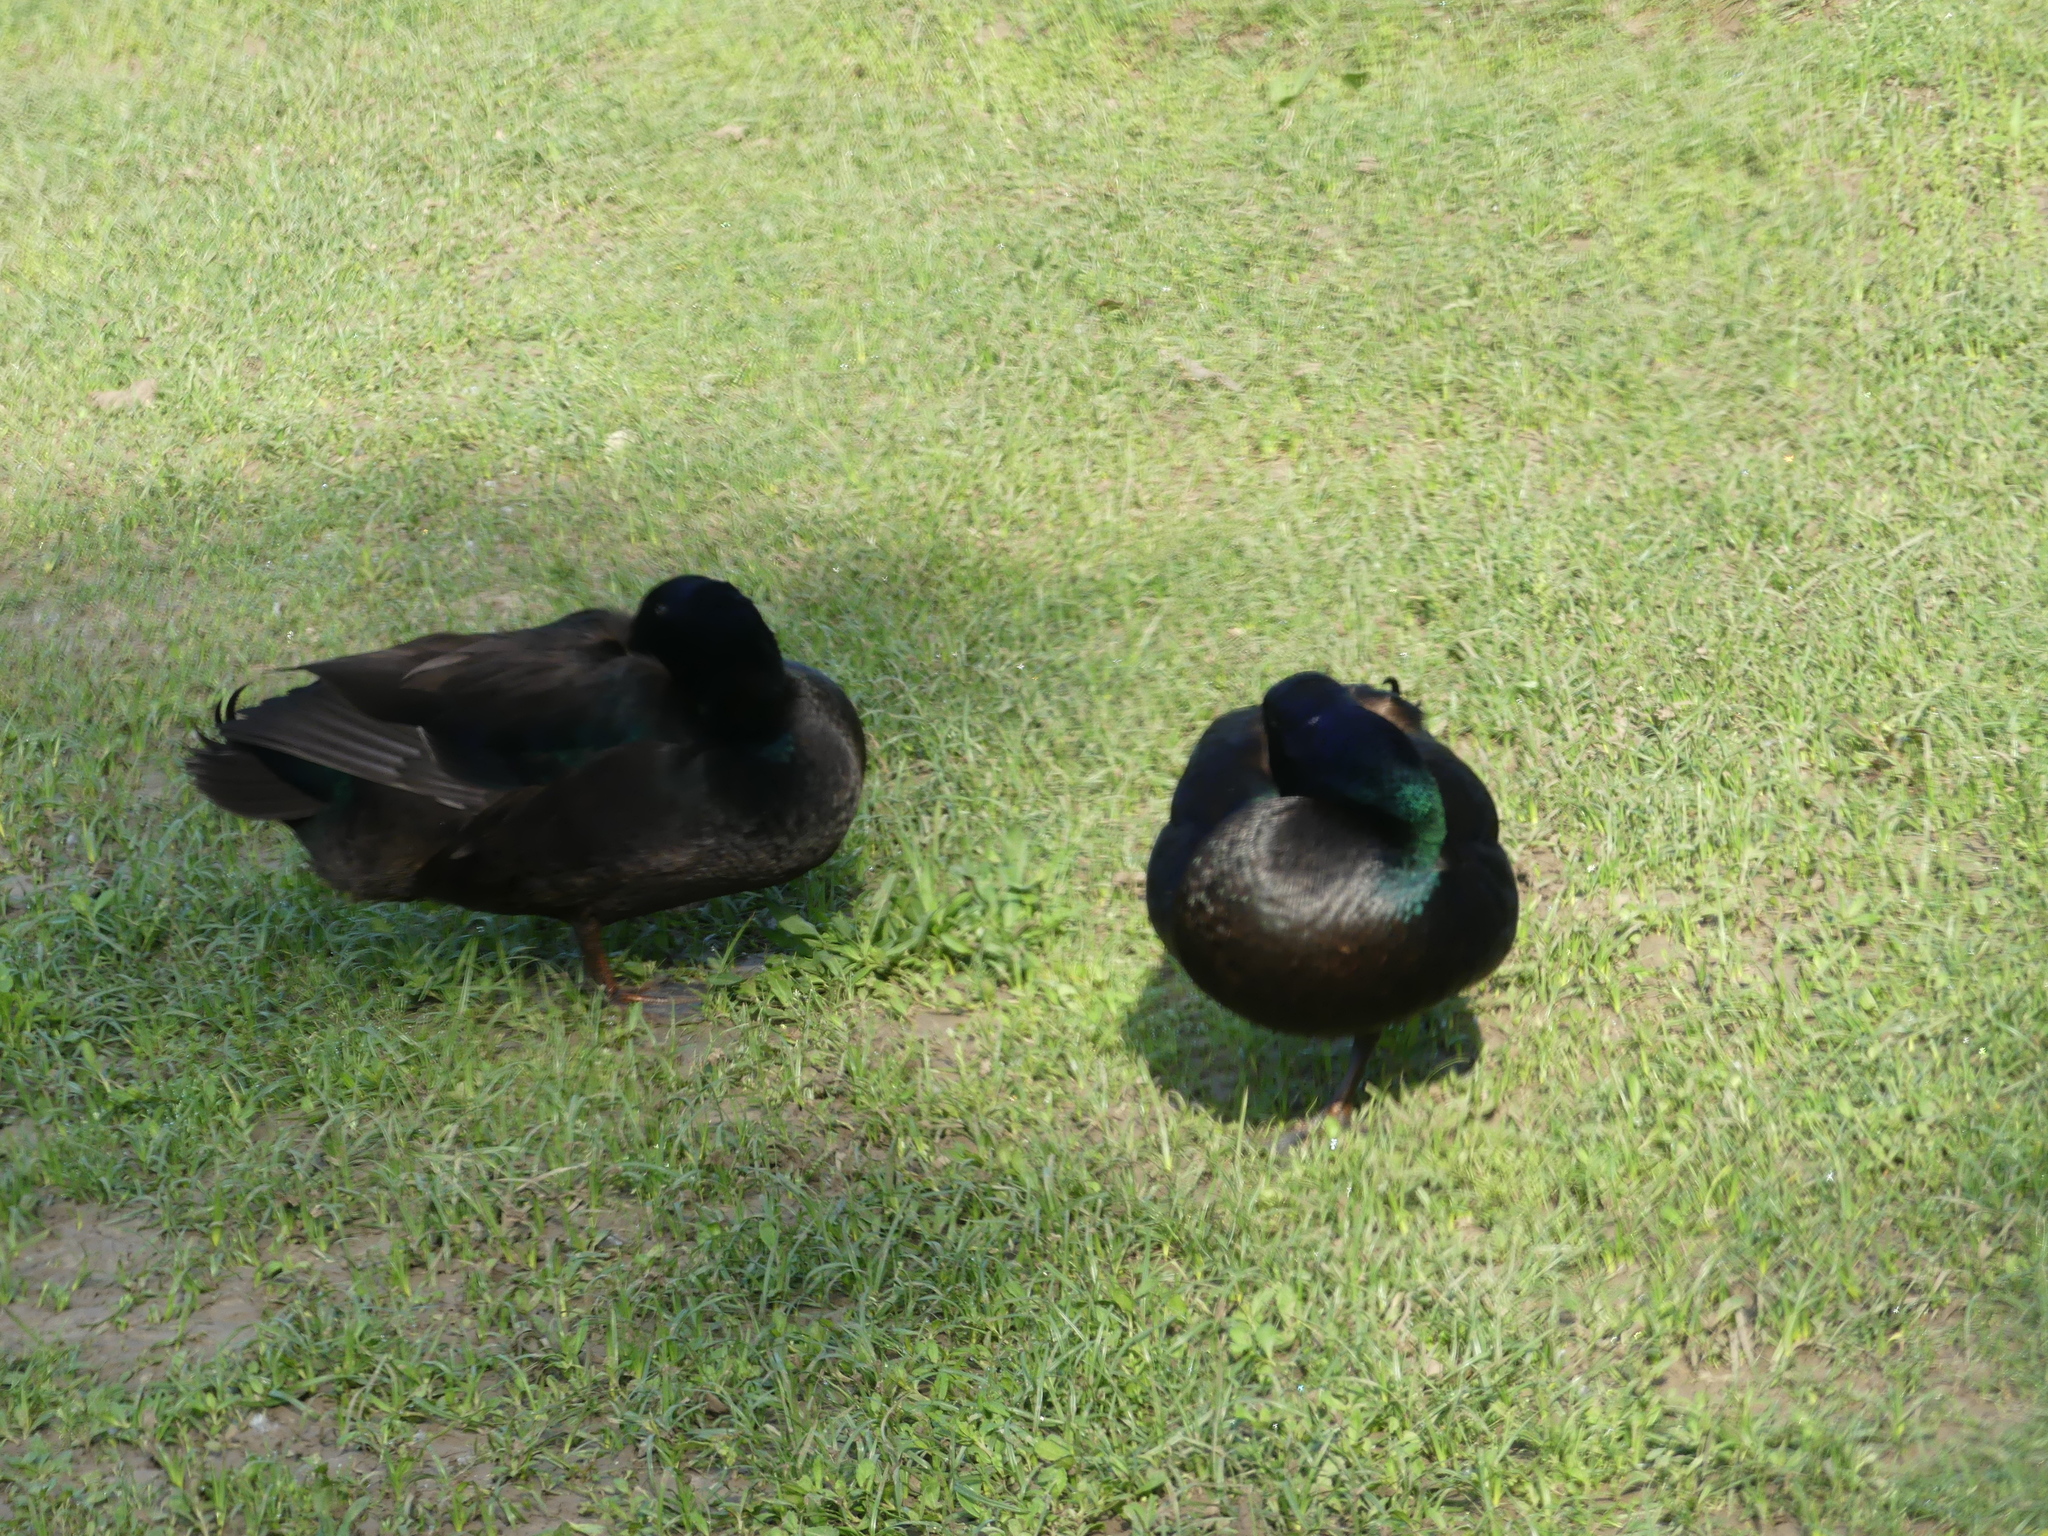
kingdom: Animalia
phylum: Chordata
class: Aves
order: Anseriformes
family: Anatidae
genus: Anas
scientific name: Anas platyrhynchos
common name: Mallard
